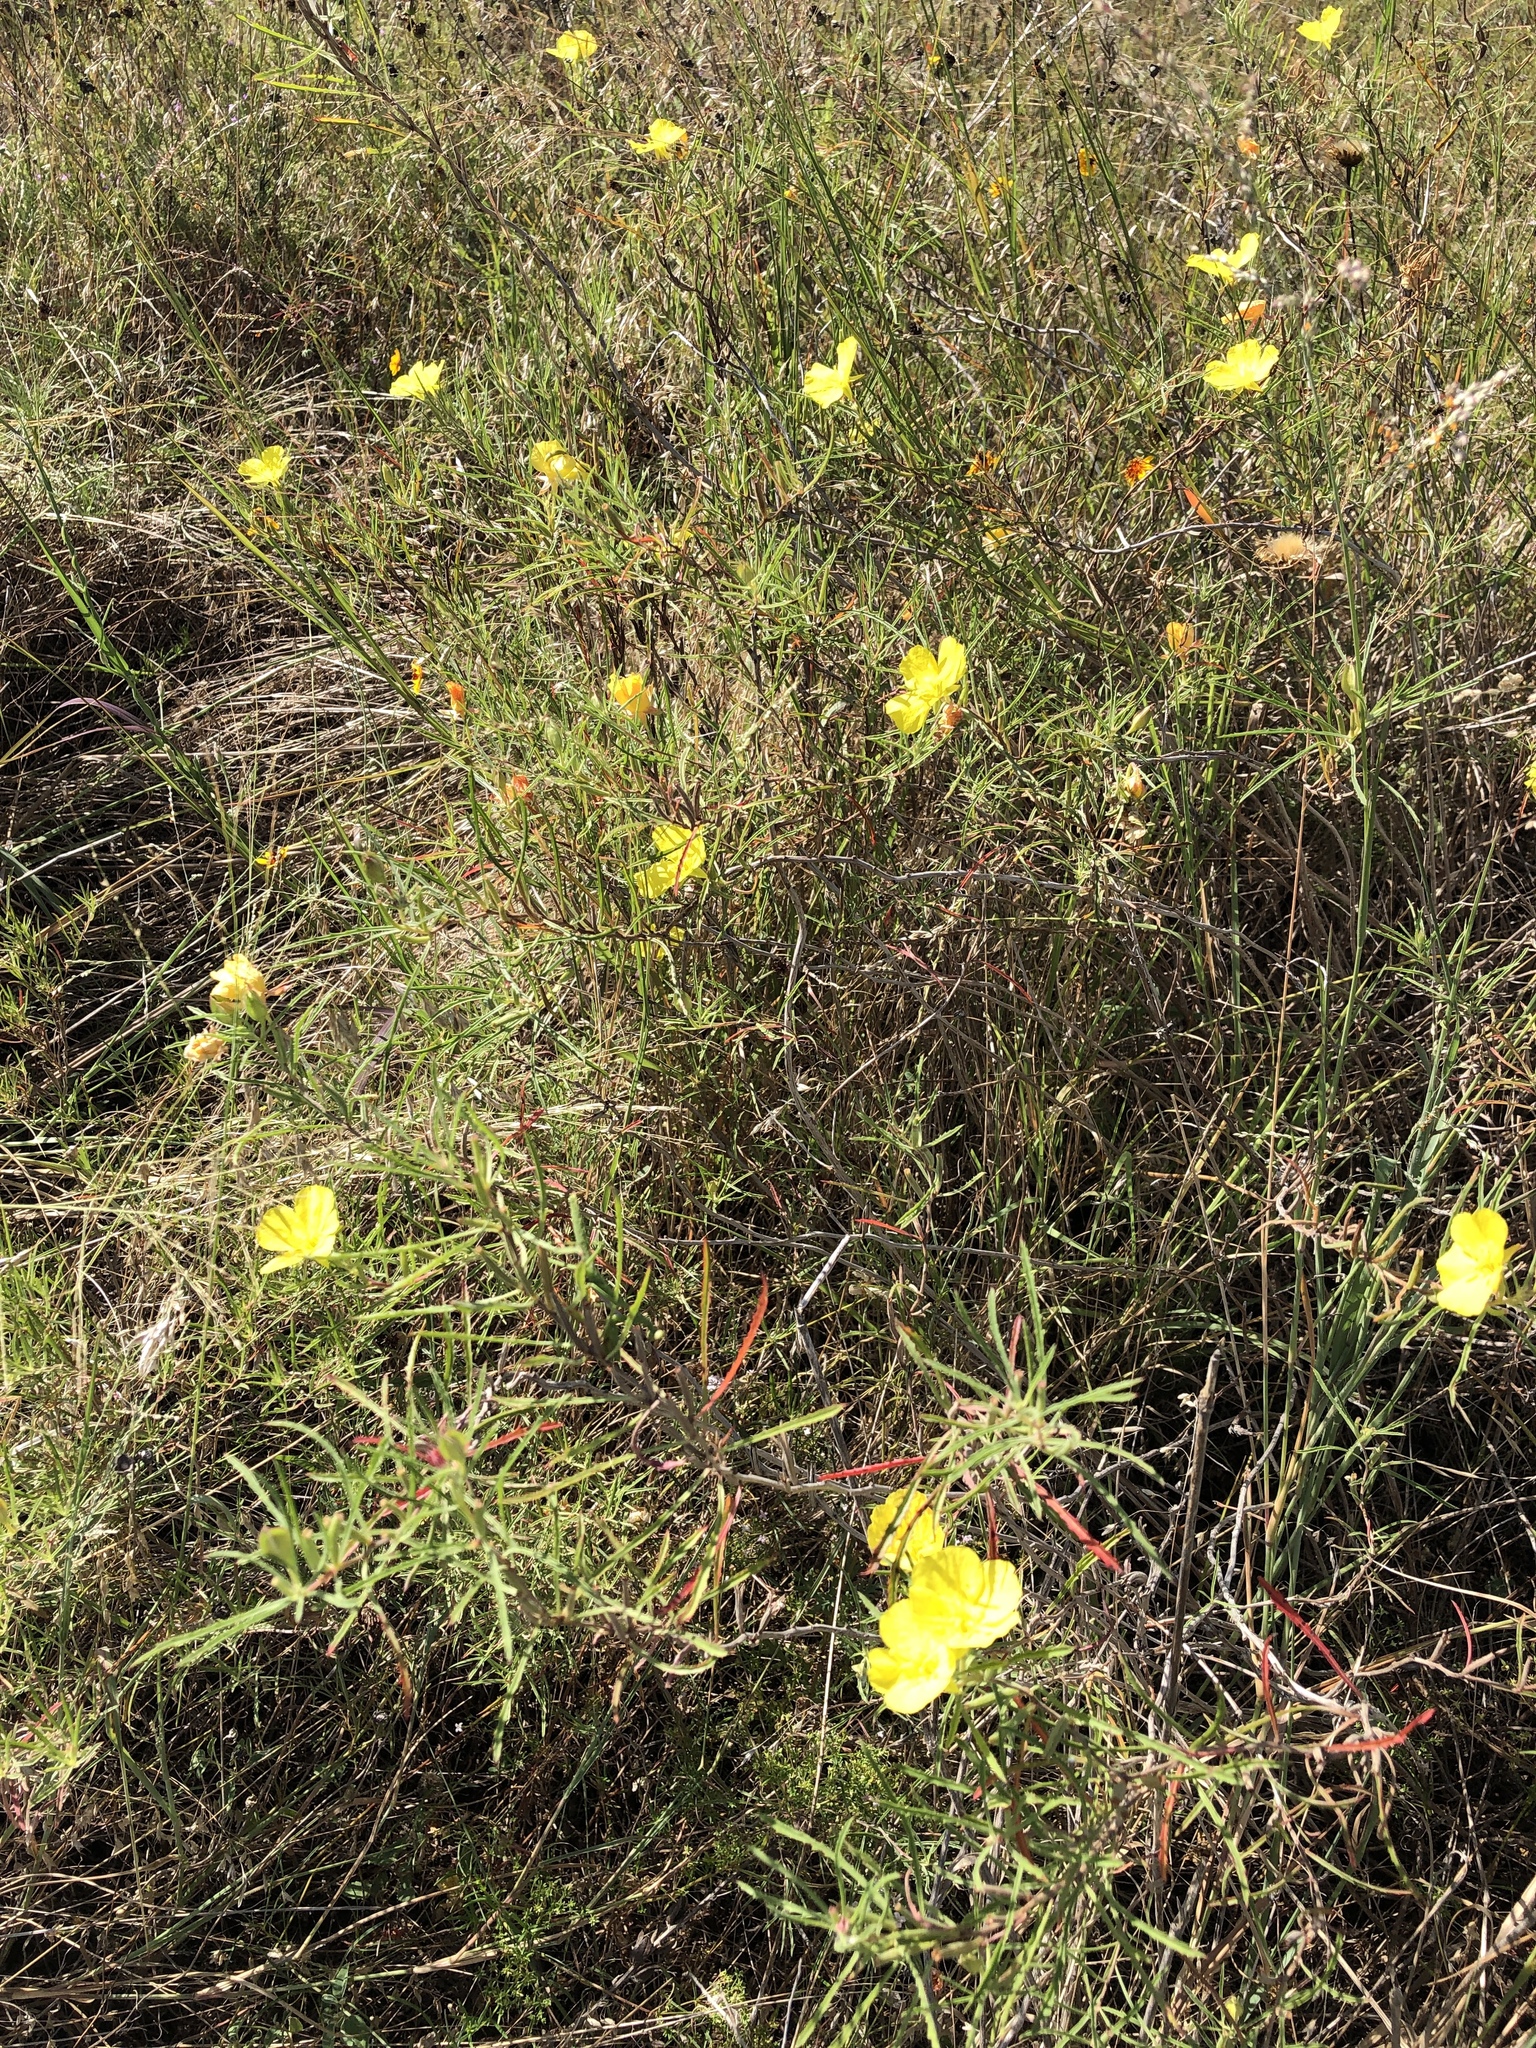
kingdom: Plantae
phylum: Tracheophyta
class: Magnoliopsida
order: Myrtales
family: Onagraceae
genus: Oenothera
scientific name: Oenothera
